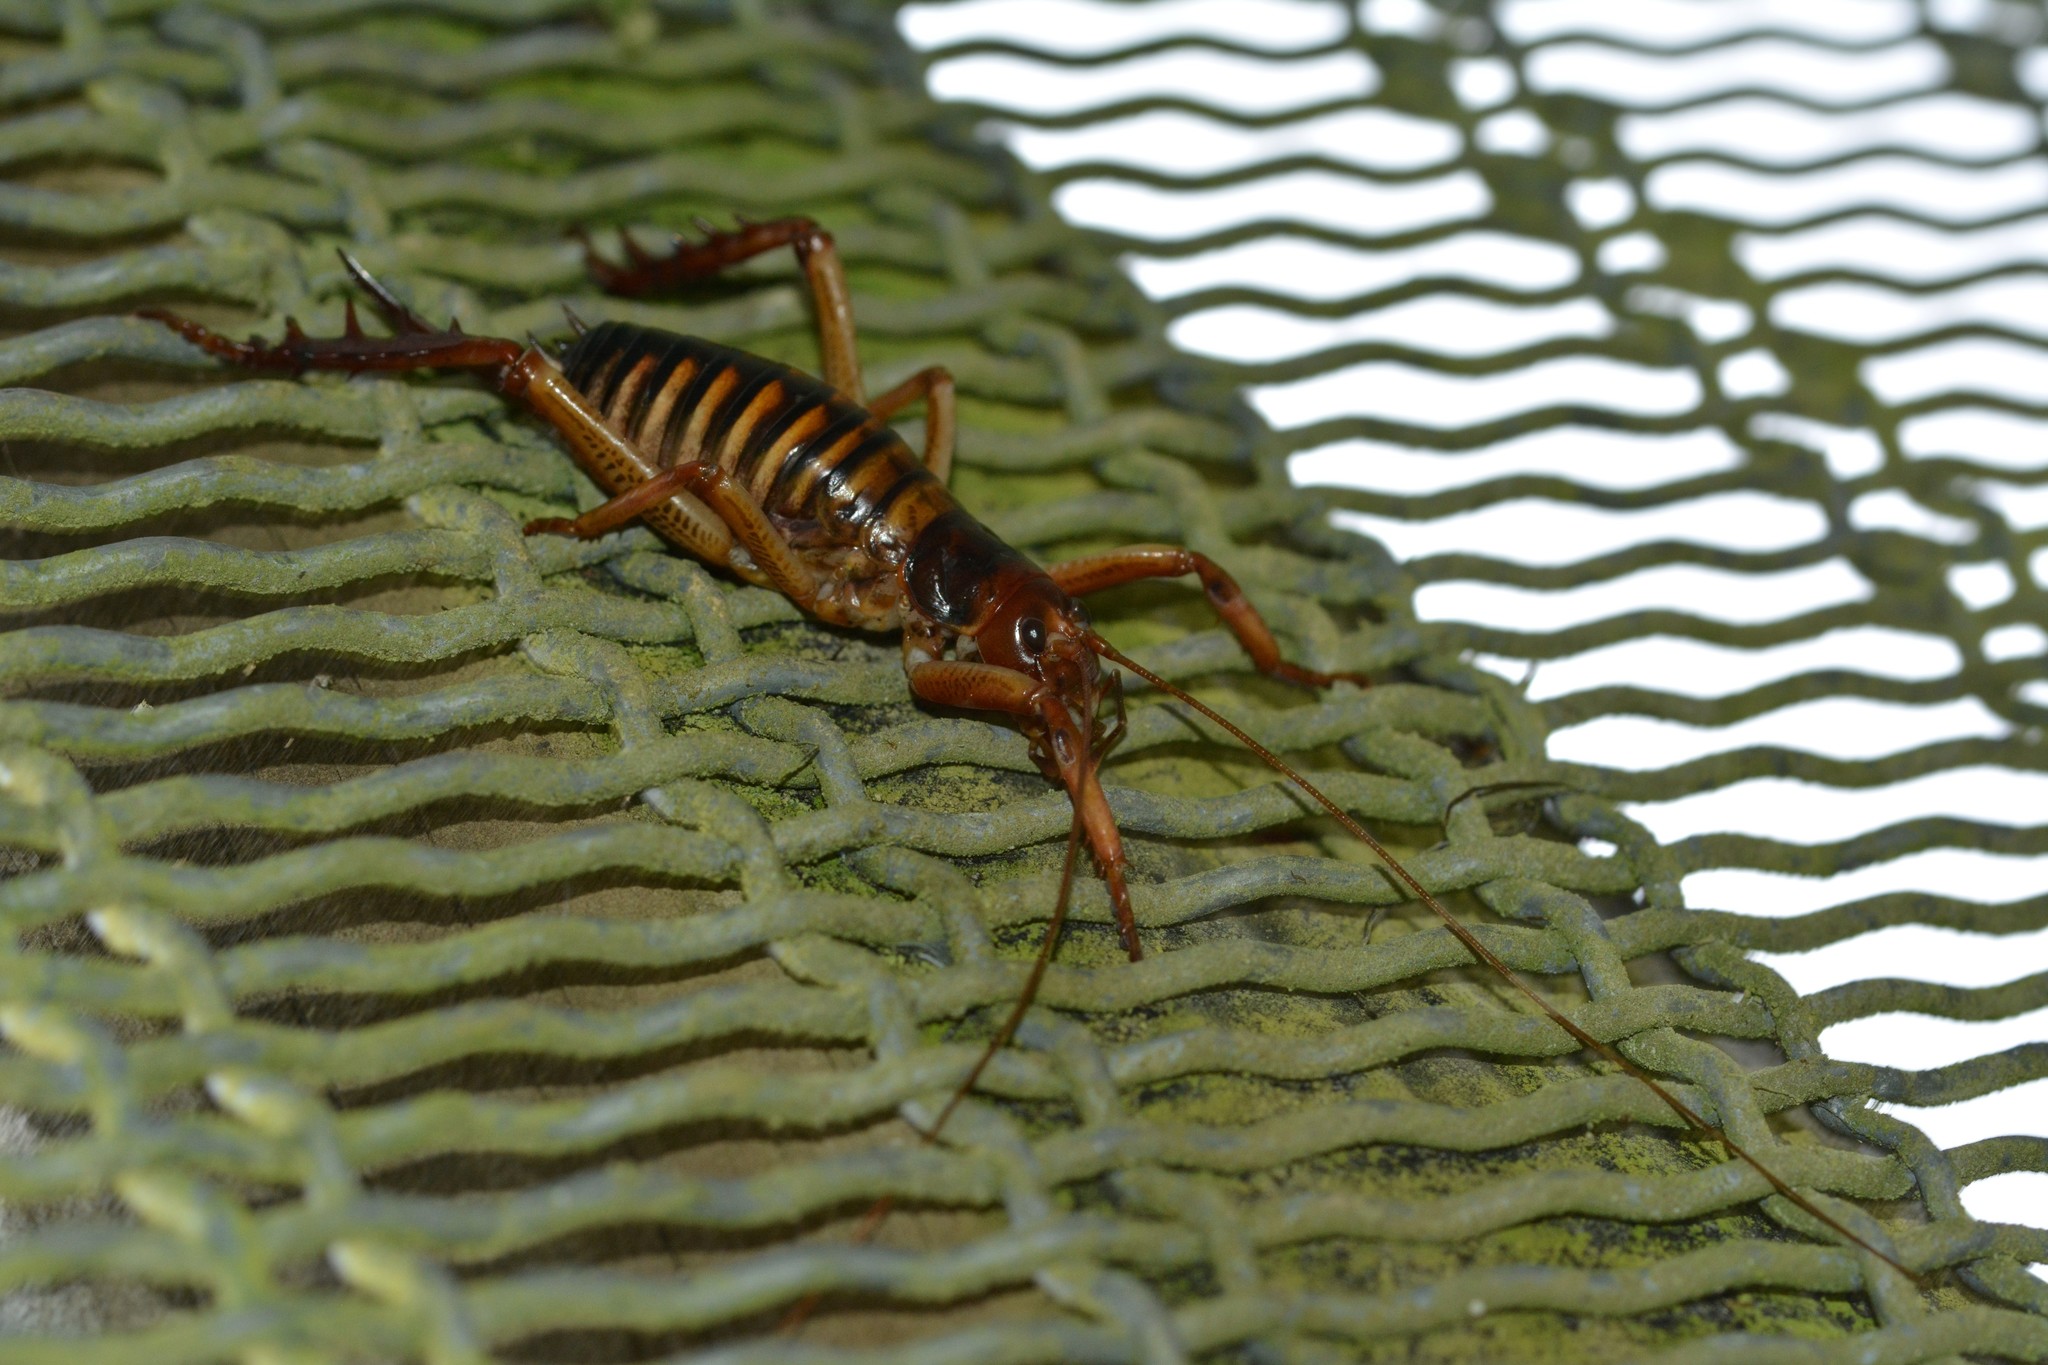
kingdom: Animalia
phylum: Arthropoda
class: Insecta
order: Orthoptera
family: Anostostomatidae
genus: Hemideina
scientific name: Hemideina crassidens
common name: Wellington tree weta
